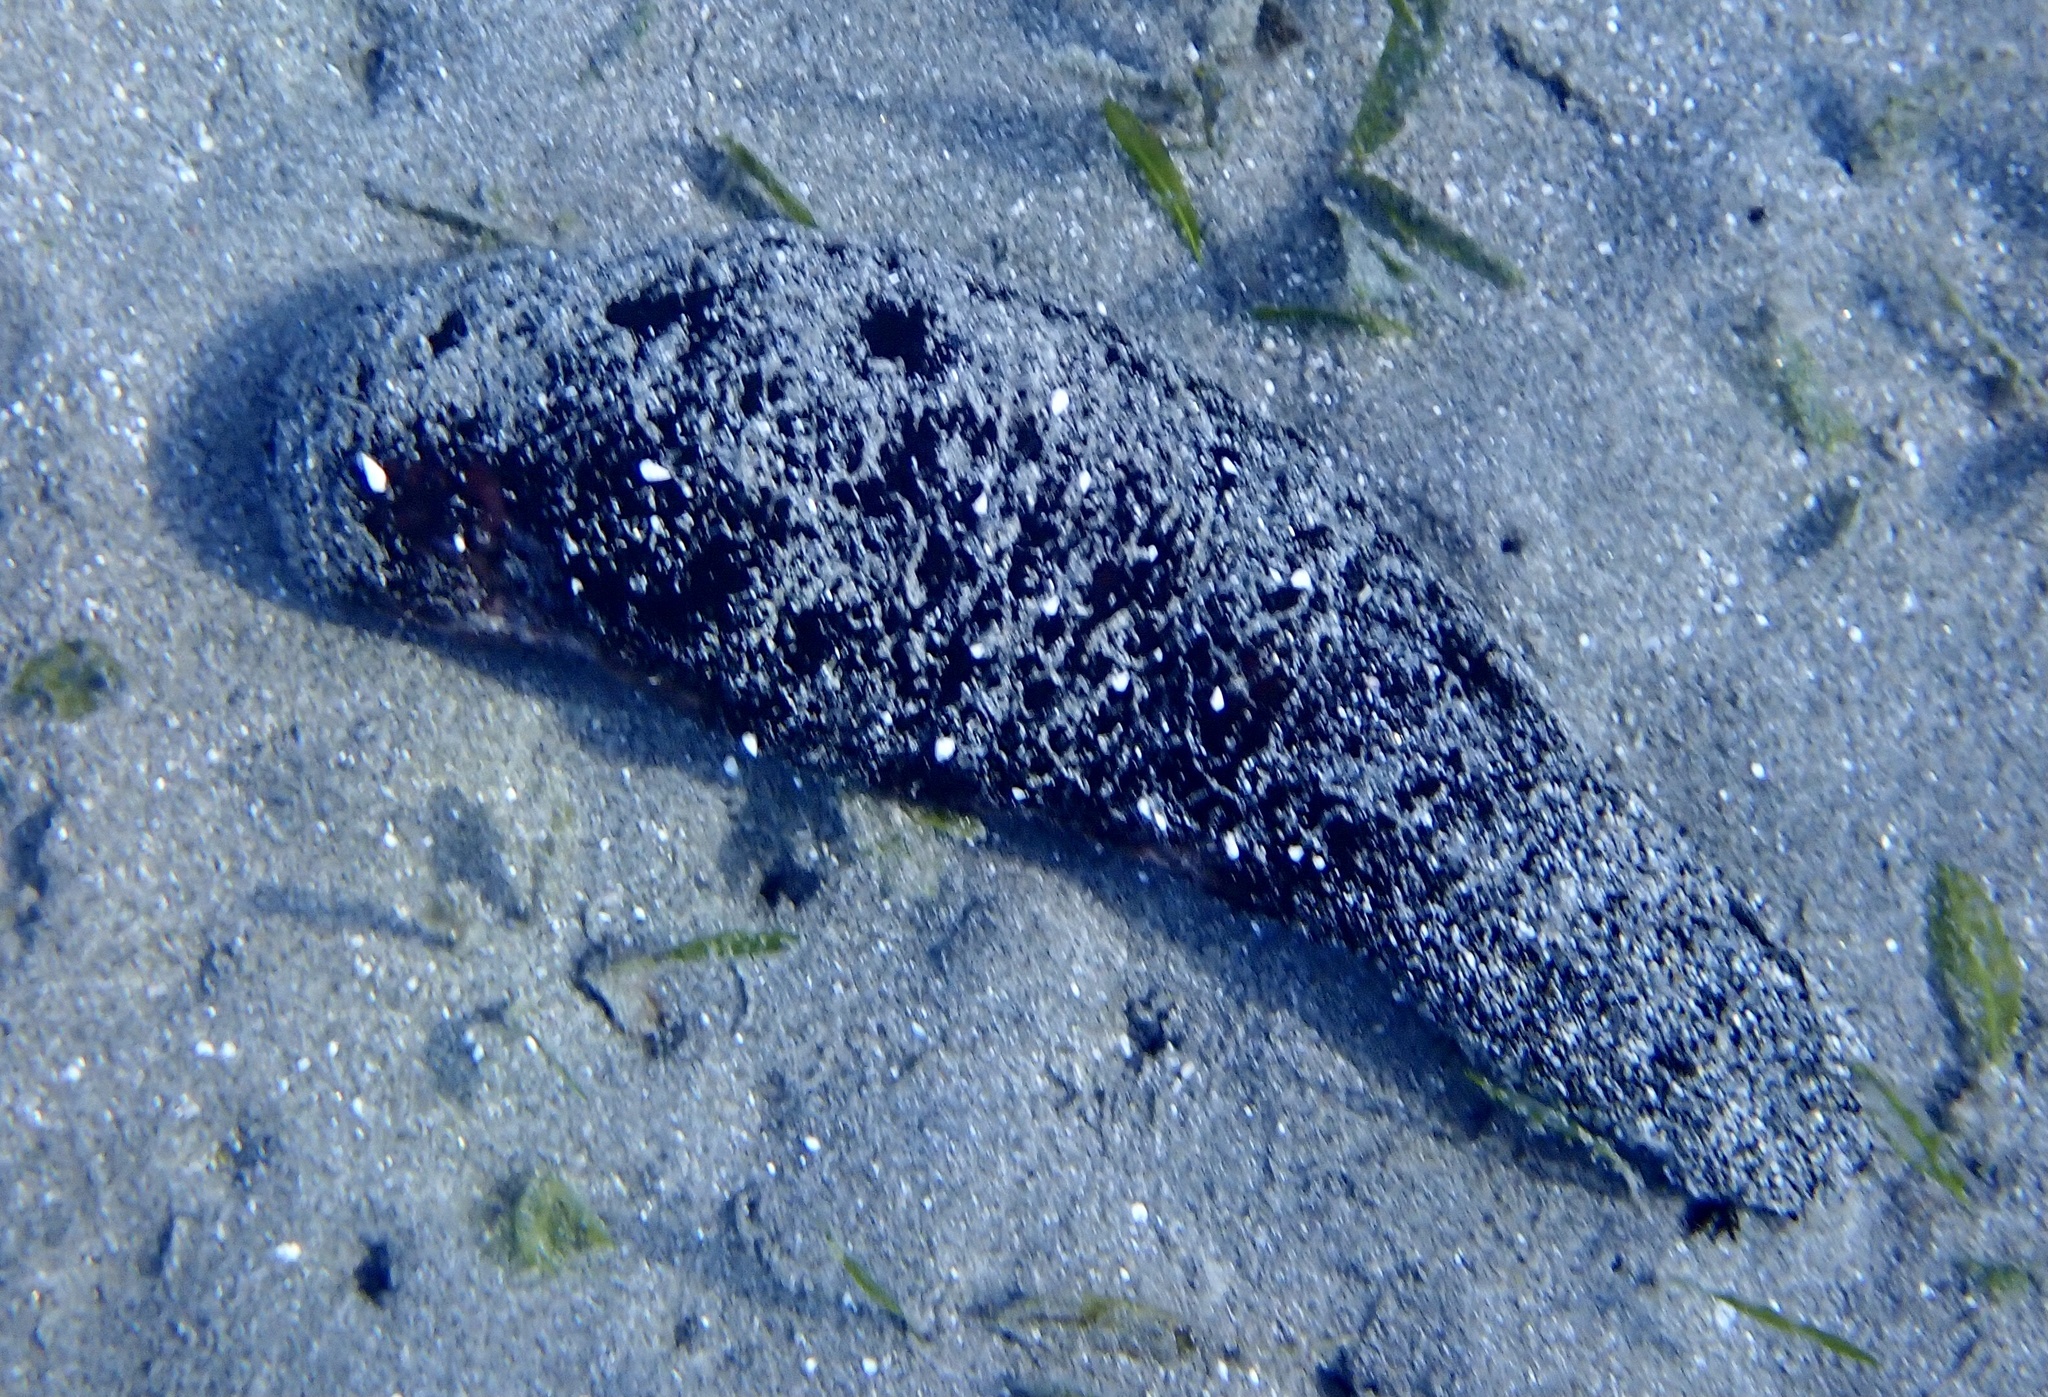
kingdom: Animalia
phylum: Echinodermata
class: Holothuroidea
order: Holothuriida
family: Holothuriidae
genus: Holothuria
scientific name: Holothuria atra
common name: Lollyfish
